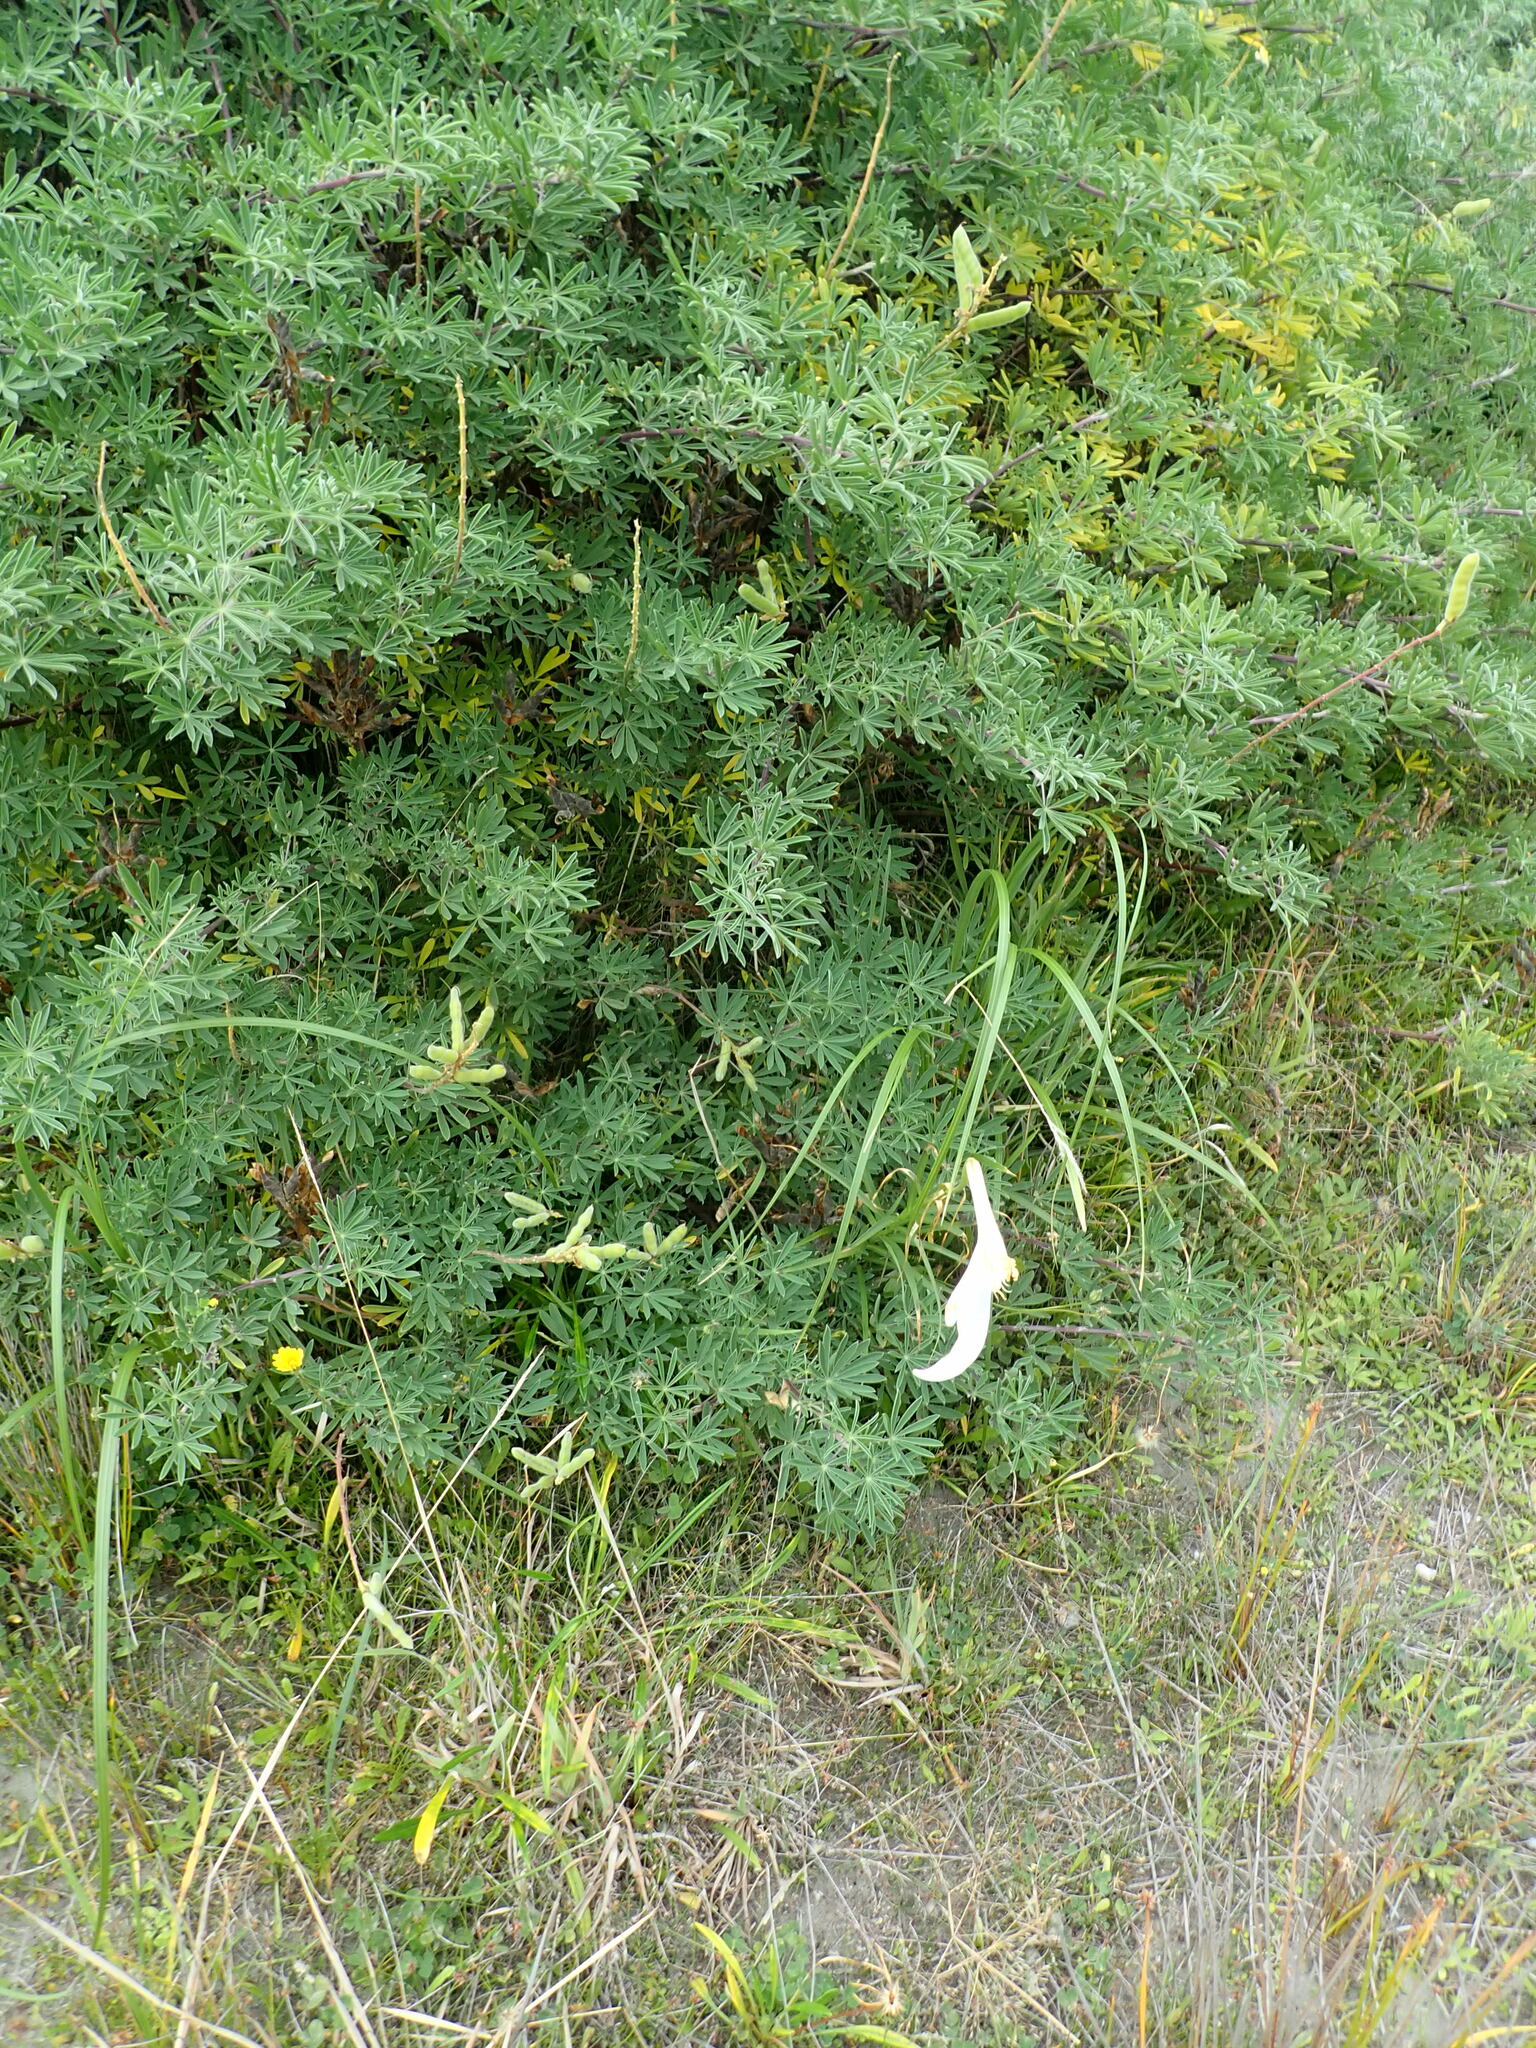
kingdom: Plantae
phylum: Tracheophyta
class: Magnoliopsida
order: Fabales
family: Fabaceae
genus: Lupinus
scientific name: Lupinus arboreus
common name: Yellow bush lupine
